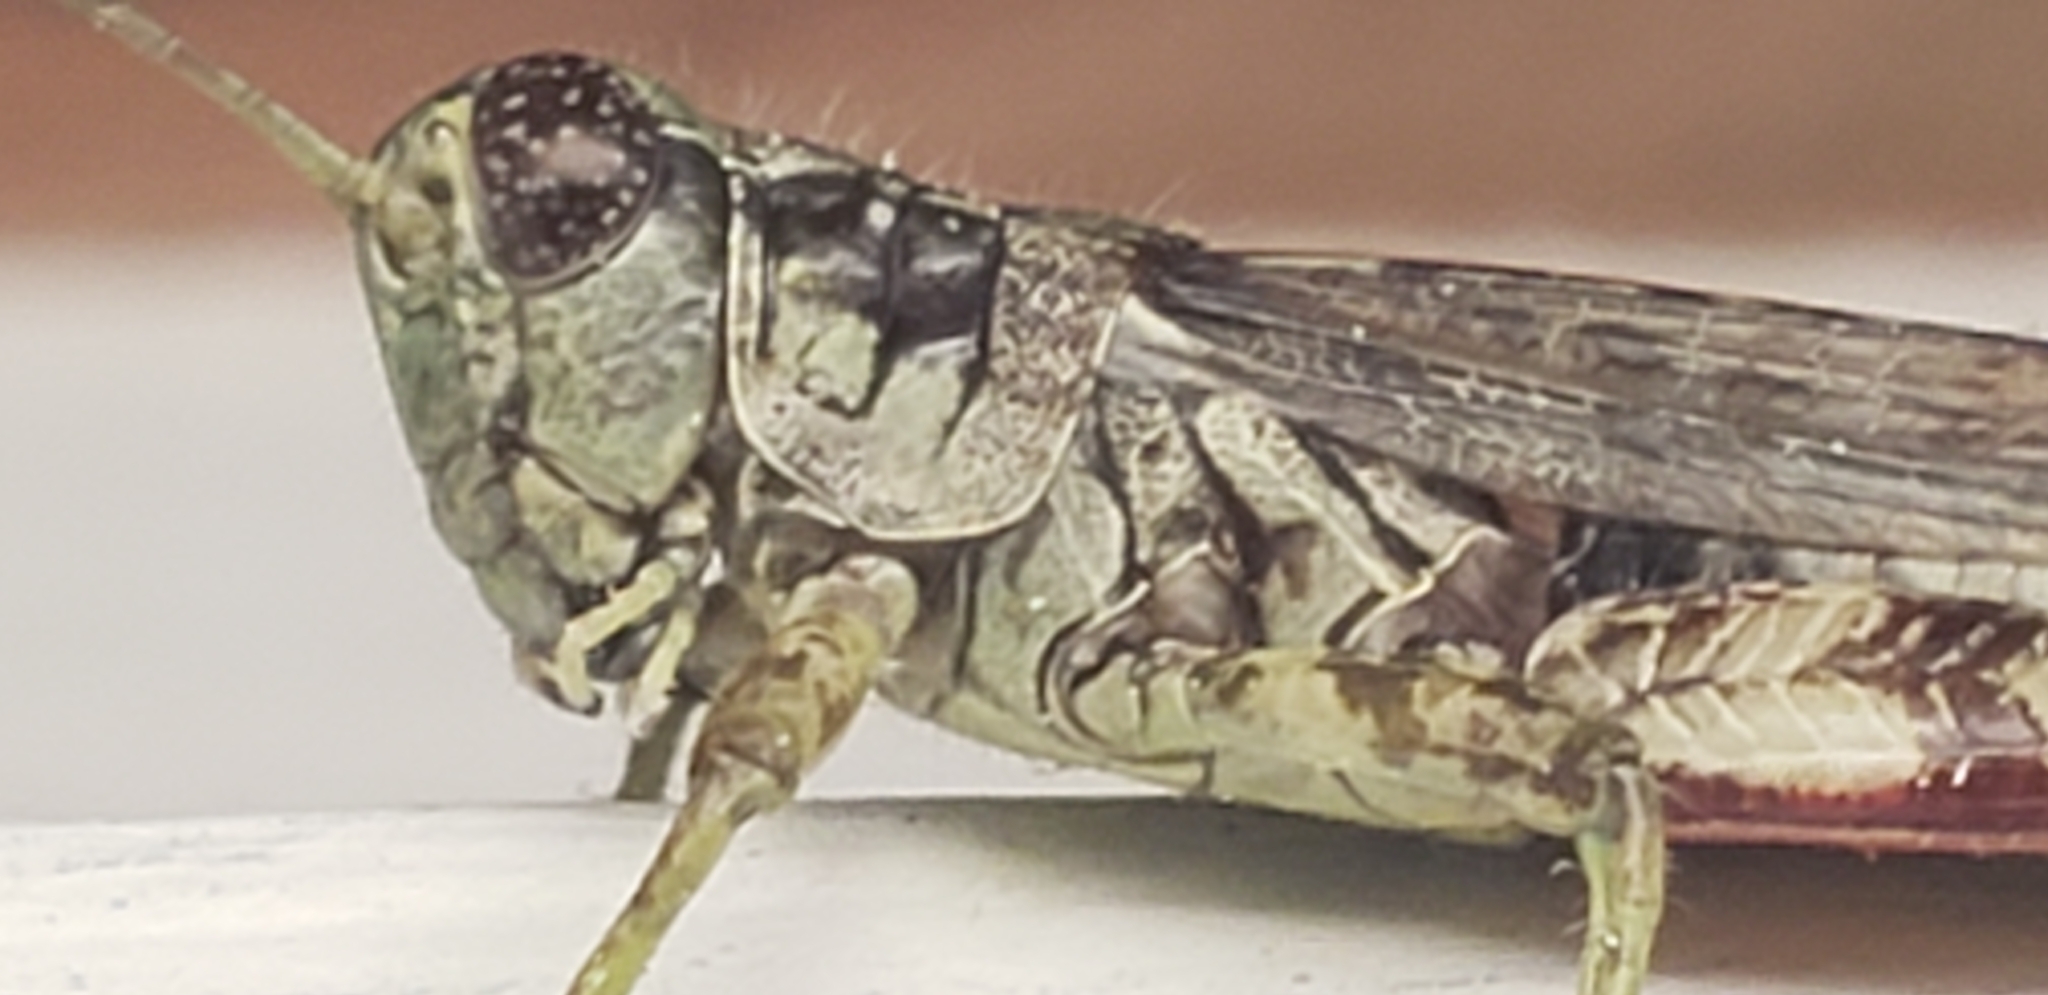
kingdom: Animalia
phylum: Arthropoda
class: Insecta
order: Orthoptera
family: Acrididae
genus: Melanoplus
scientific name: Melanoplus punctulatus
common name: Pine-tree spur-throat grasshopper
